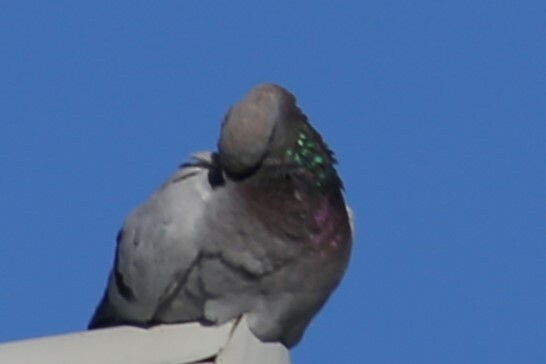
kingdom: Animalia
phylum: Chordata
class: Aves
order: Columbiformes
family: Columbidae
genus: Columba
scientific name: Columba livia
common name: Rock pigeon
